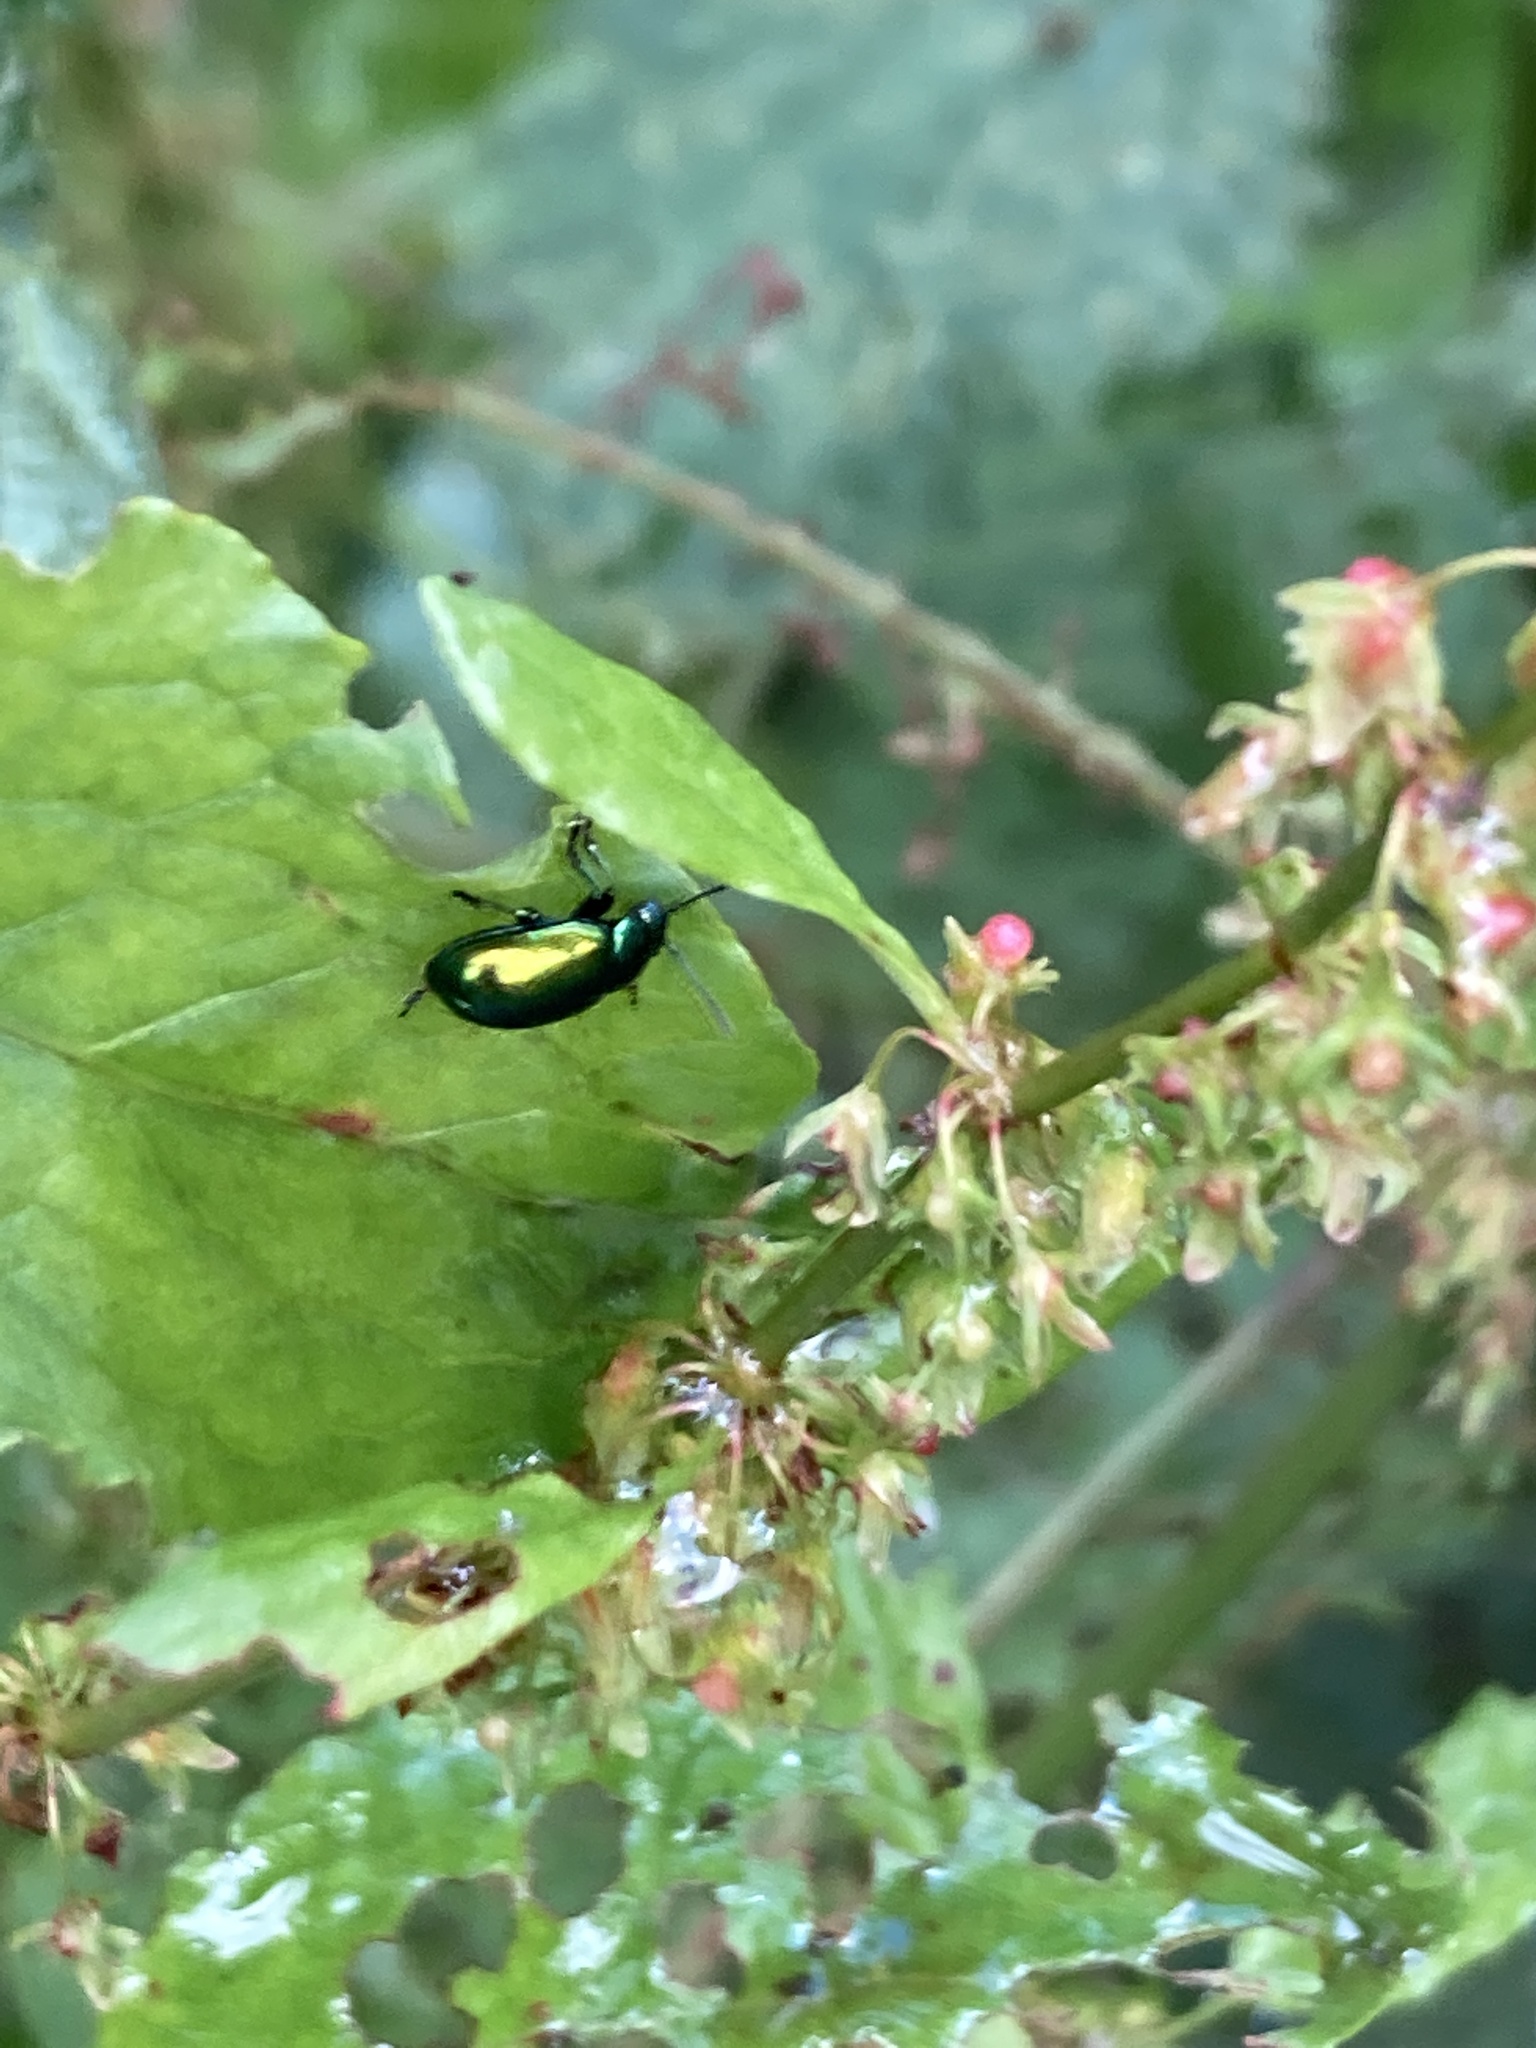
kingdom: Animalia
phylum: Arthropoda
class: Insecta
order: Coleoptera
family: Chrysomelidae
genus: Gastrophysa
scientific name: Gastrophysa viridula
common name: Green dock beetle
